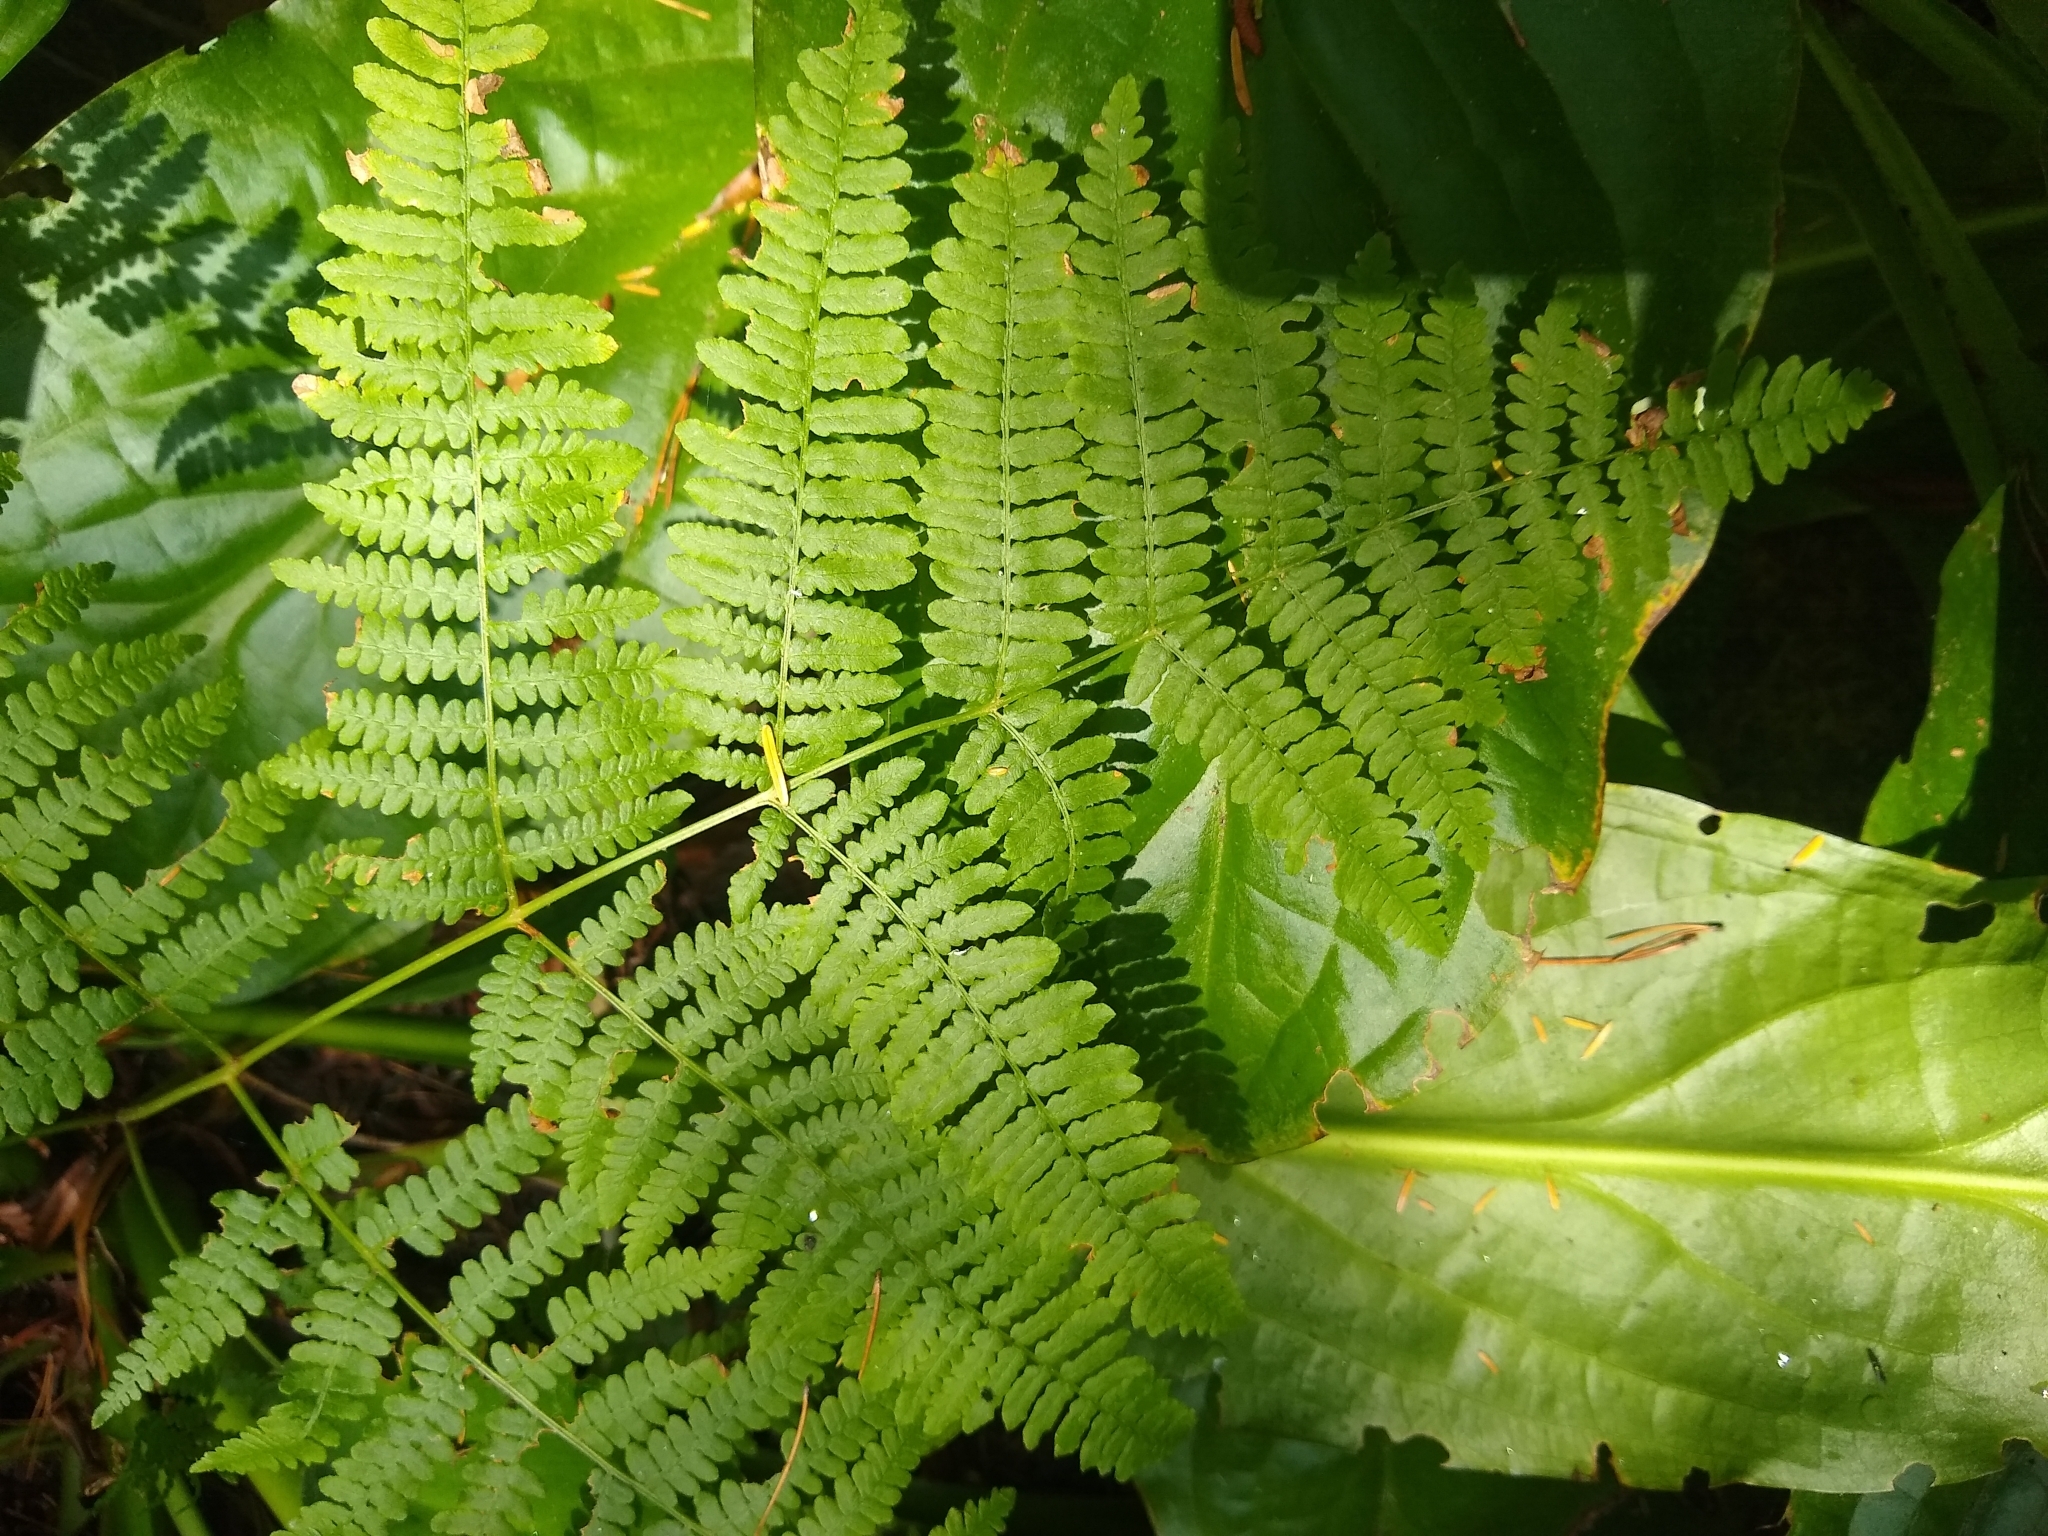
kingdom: Plantae
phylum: Tracheophyta
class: Polypodiopsida
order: Polypodiales
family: Dennstaedtiaceae
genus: Pteridium
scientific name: Pteridium aquilinum
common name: Bracken
